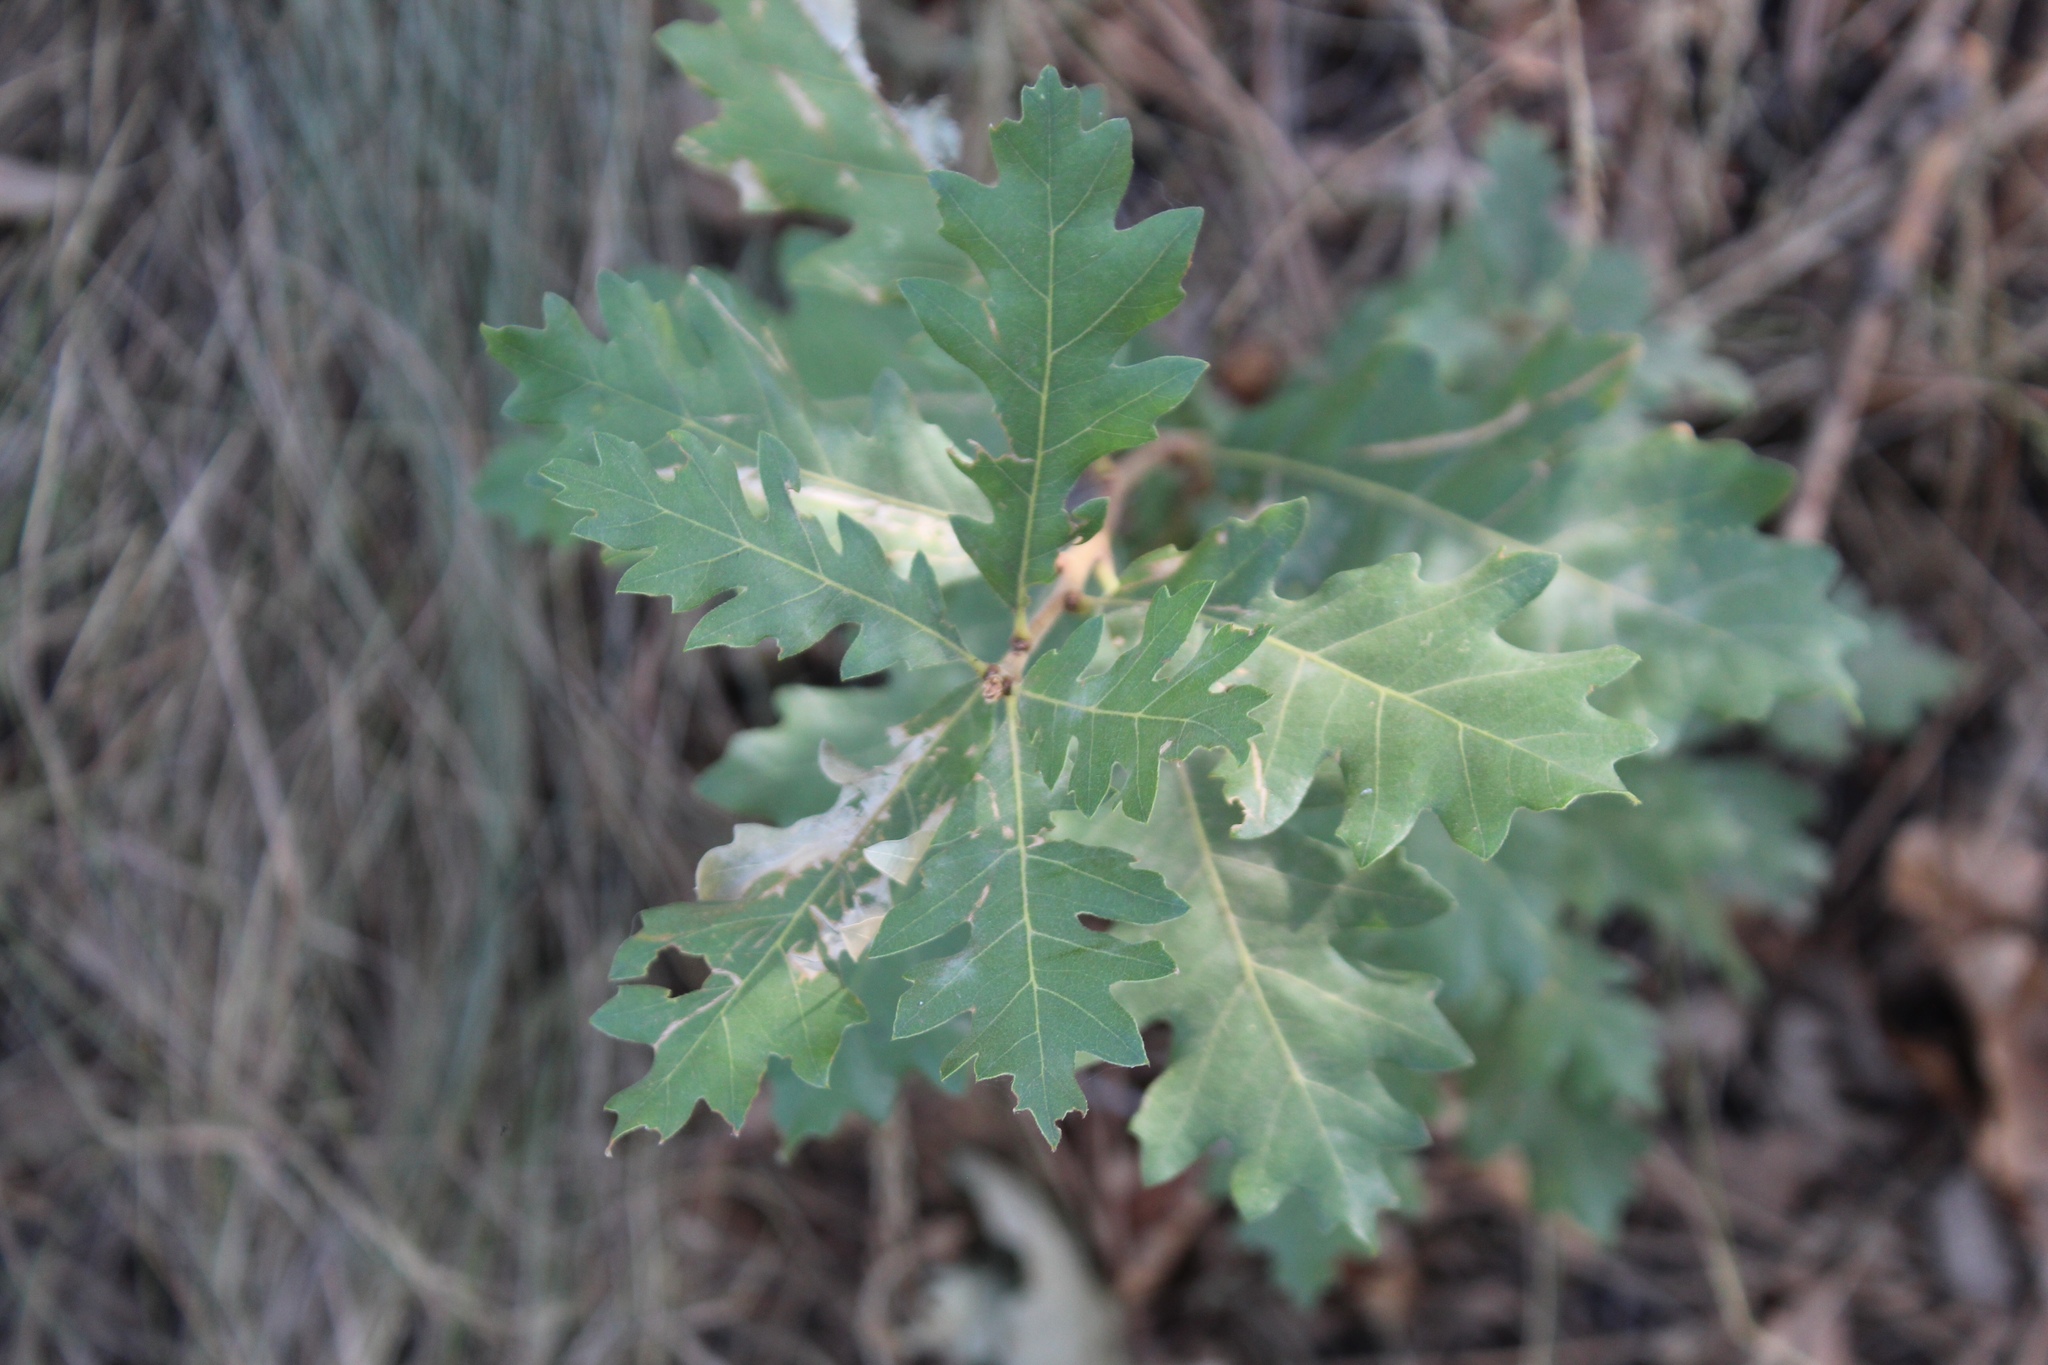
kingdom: Plantae
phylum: Tracheophyta
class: Magnoliopsida
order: Fagales
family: Fagaceae
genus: Quercus
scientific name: Quercus gambelii
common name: Gambel oak
